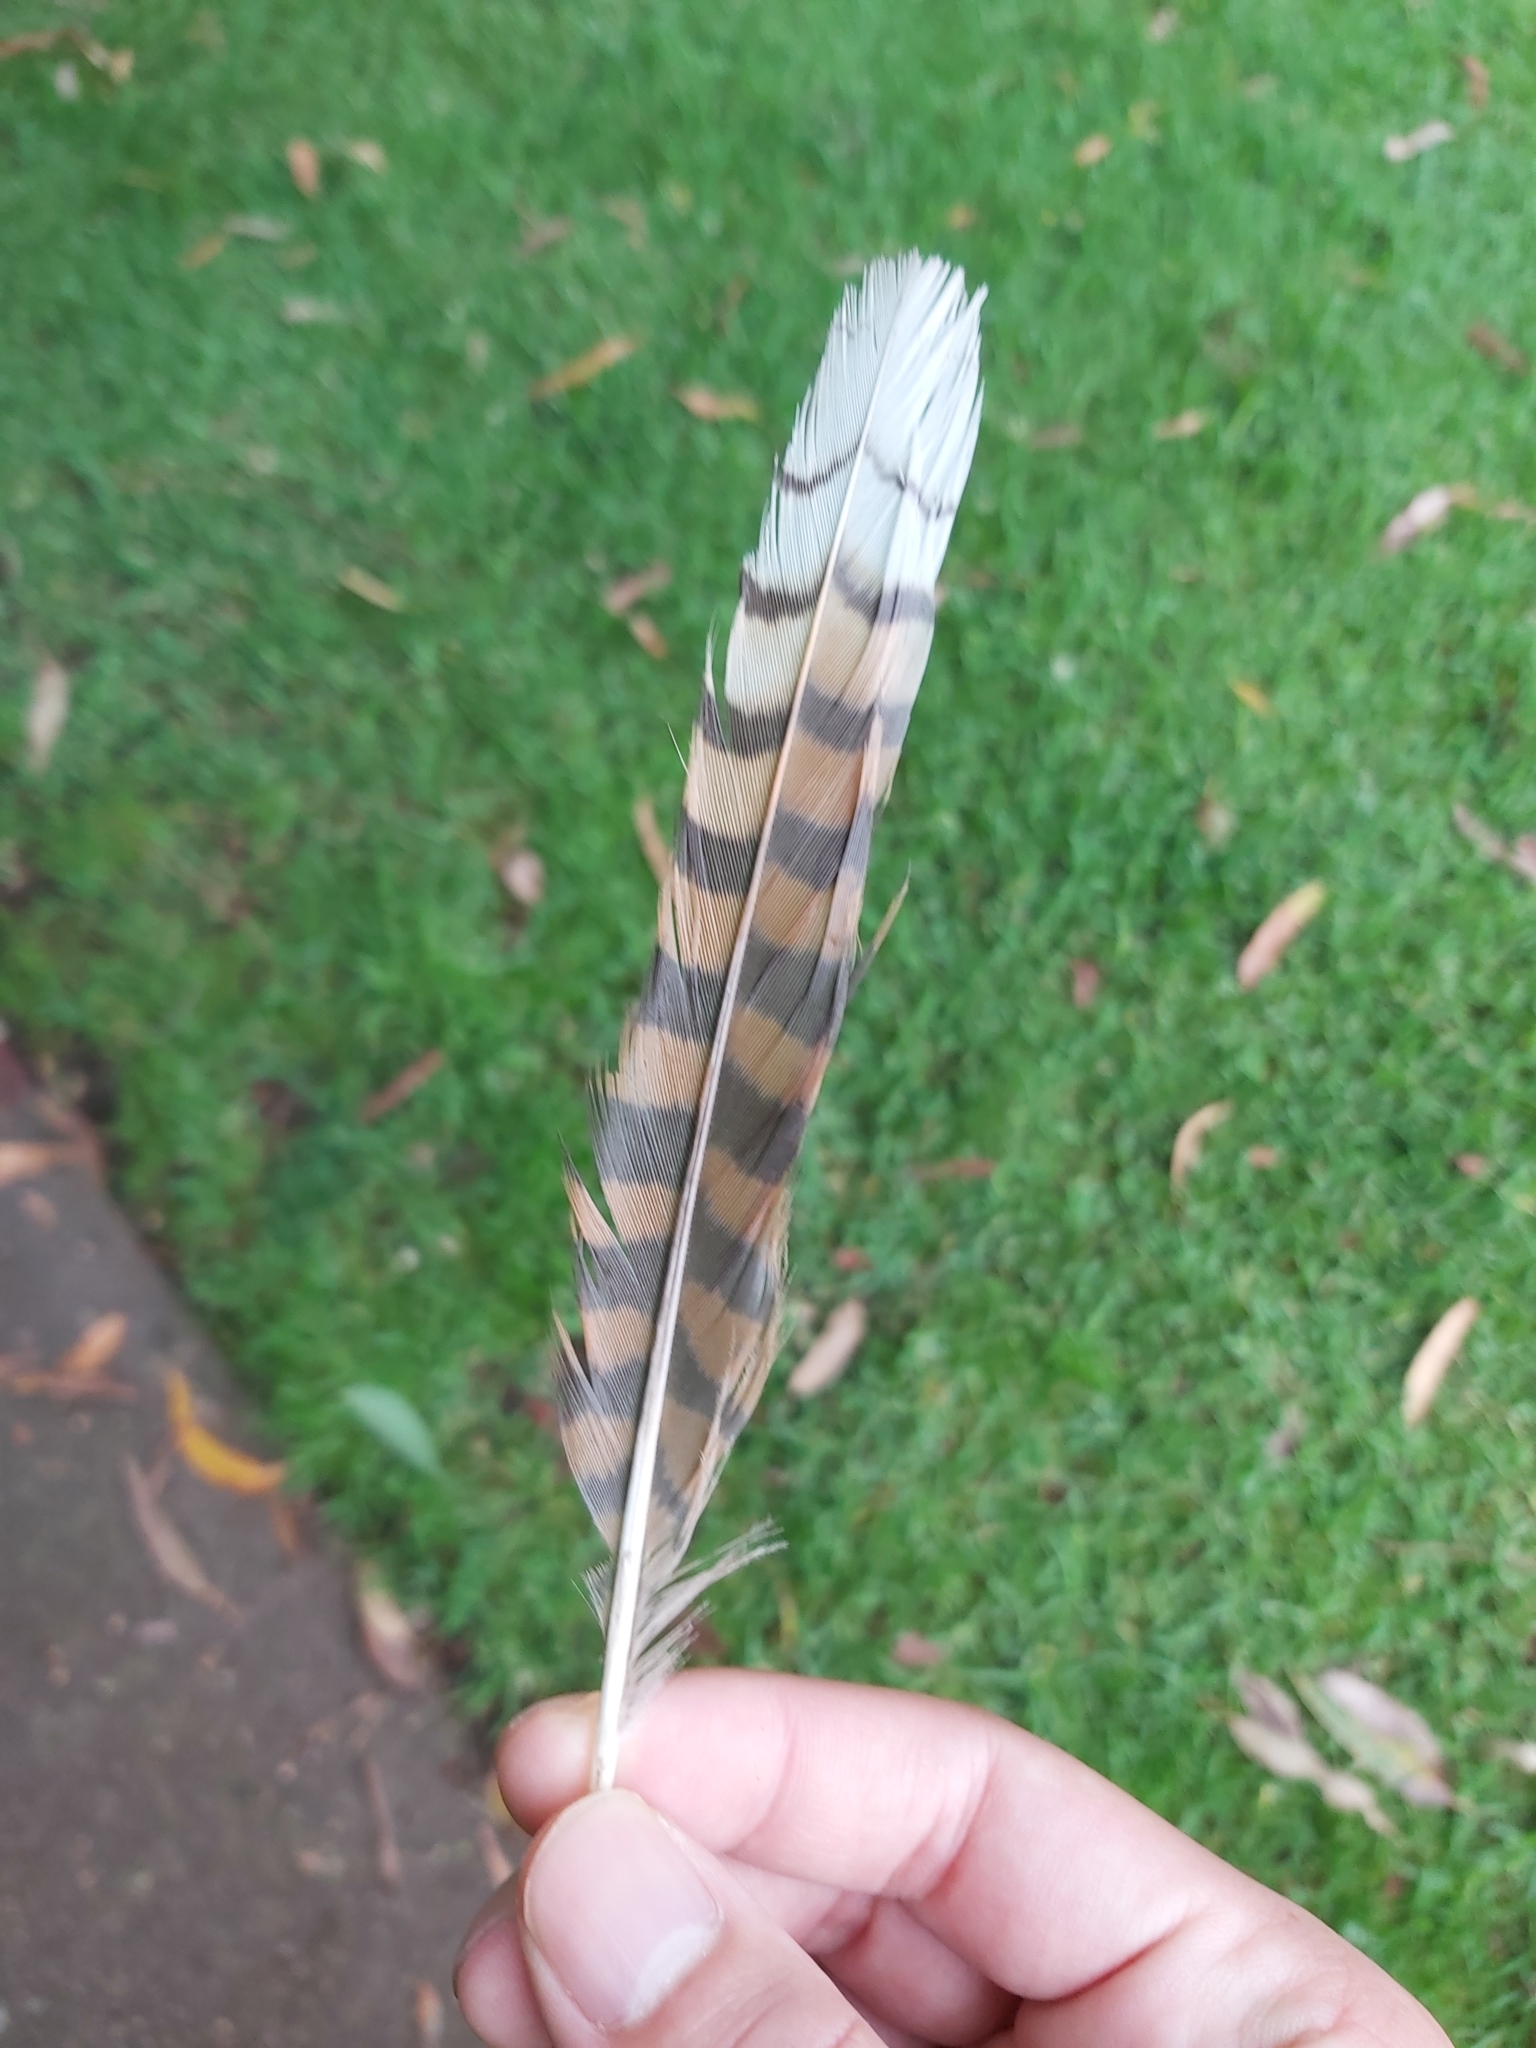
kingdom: Animalia
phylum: Chordata
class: Aves
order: Coraciiformes
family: Alcedinidae
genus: Dacelo
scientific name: Dacelo novaeguineae
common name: Laughing kookaburra
